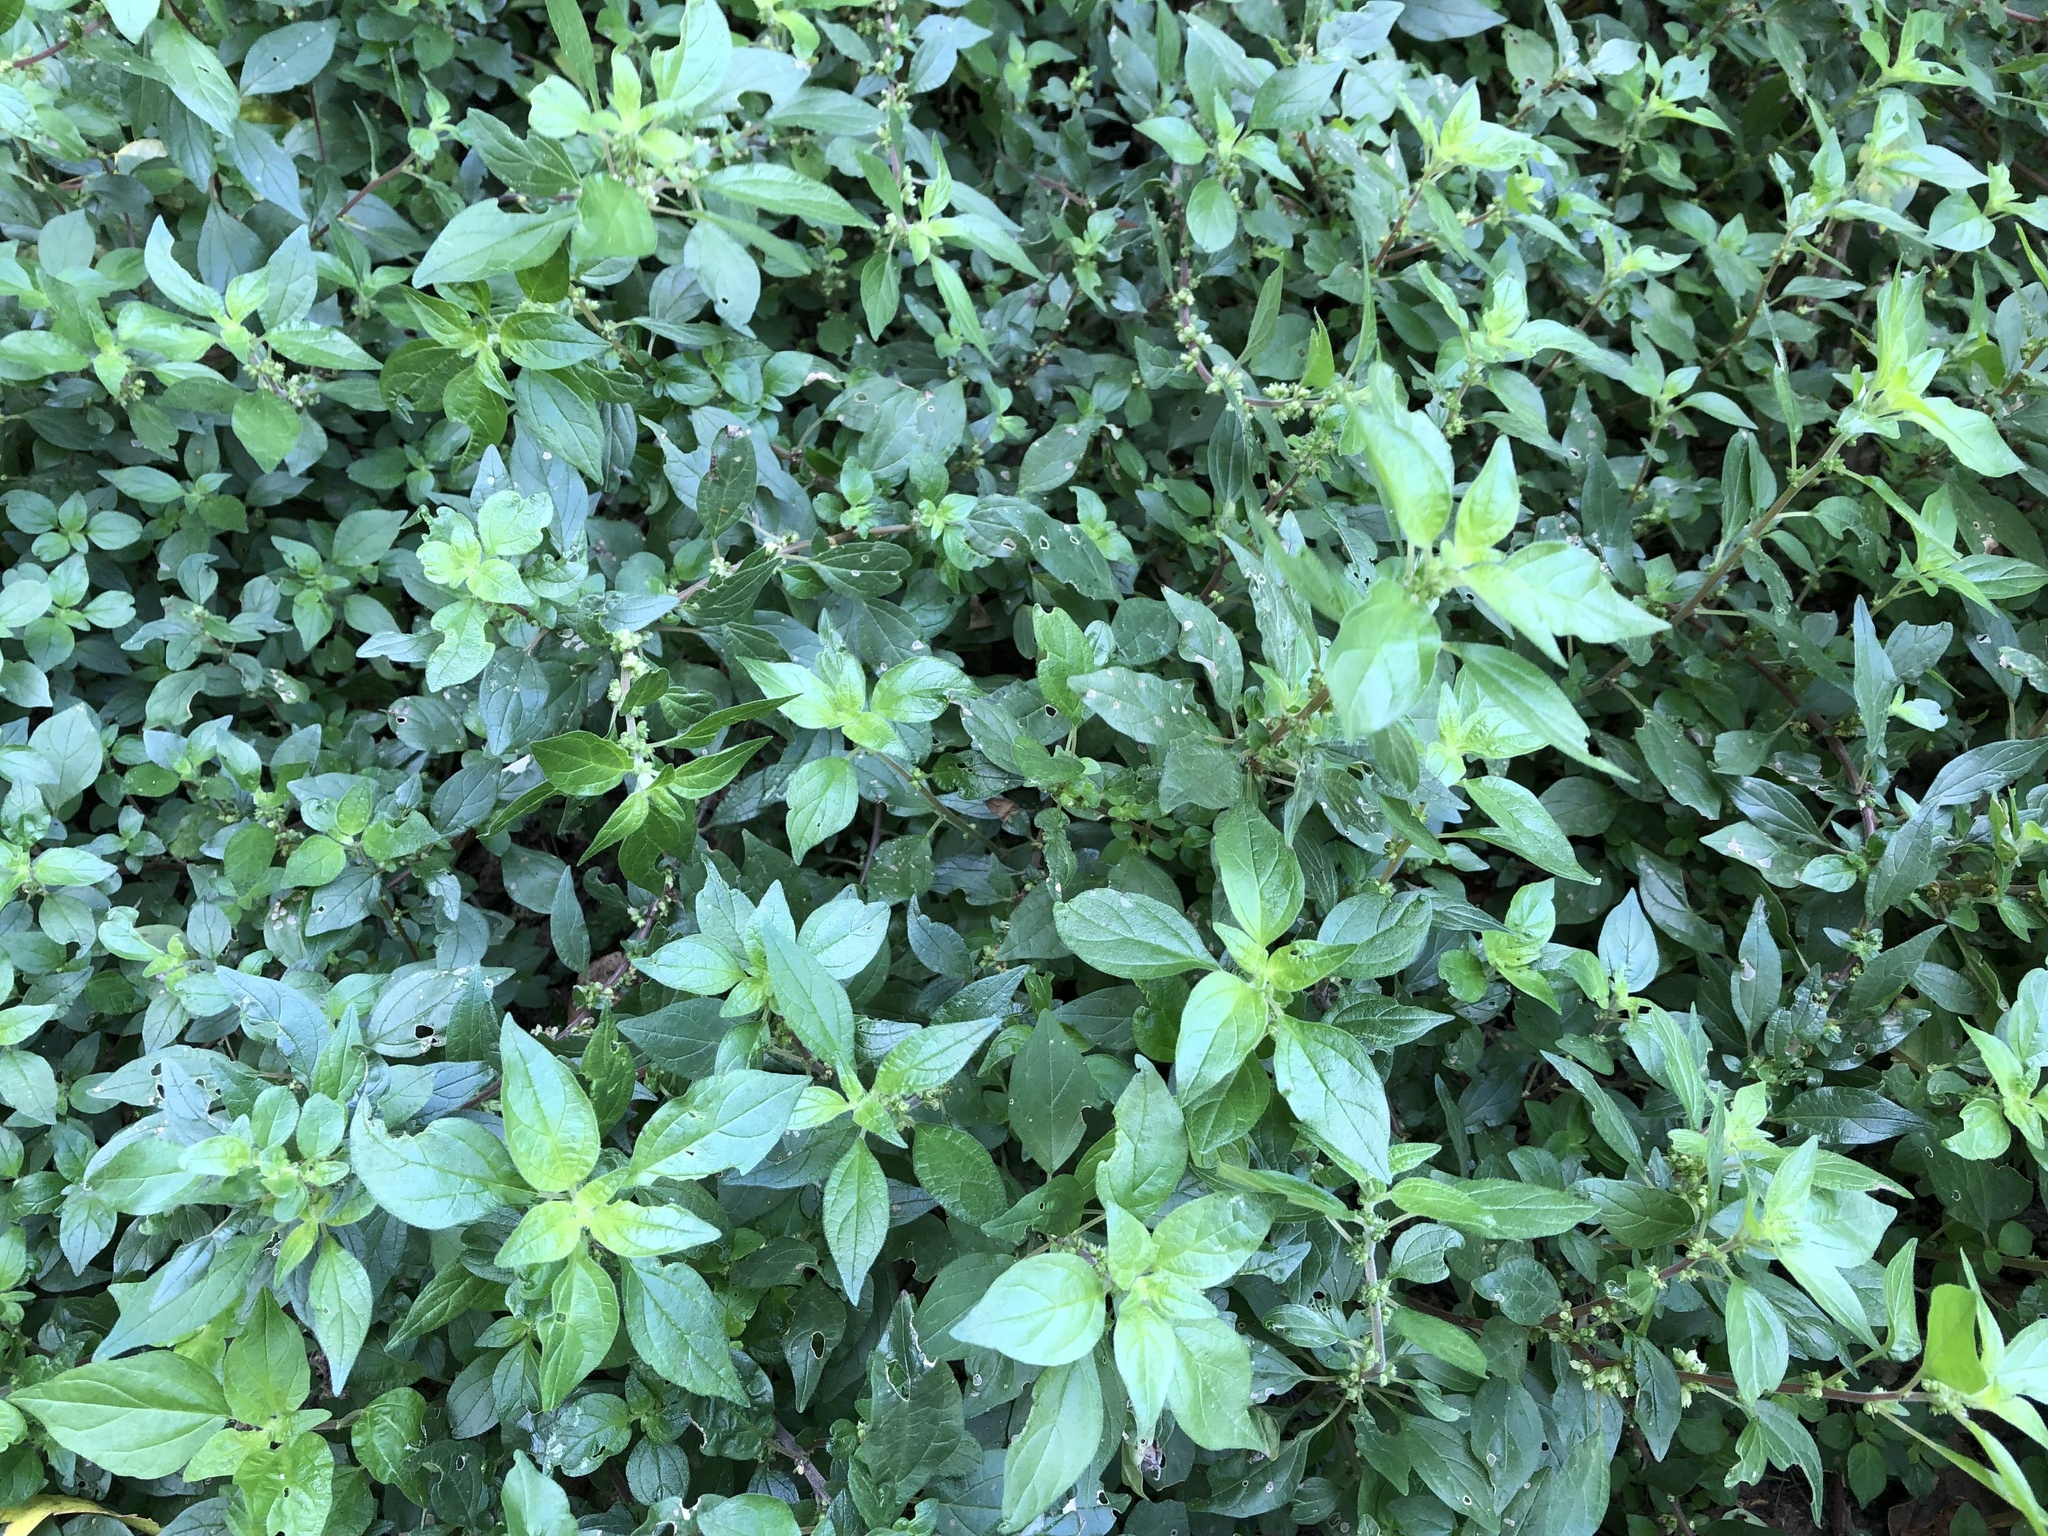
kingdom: Plantae
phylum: Tracheophyta
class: Magnoliopsida
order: Rosales
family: Urticaceae
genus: Parietaria
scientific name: Parietaria judaica
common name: Pellitory-of-the-wall
